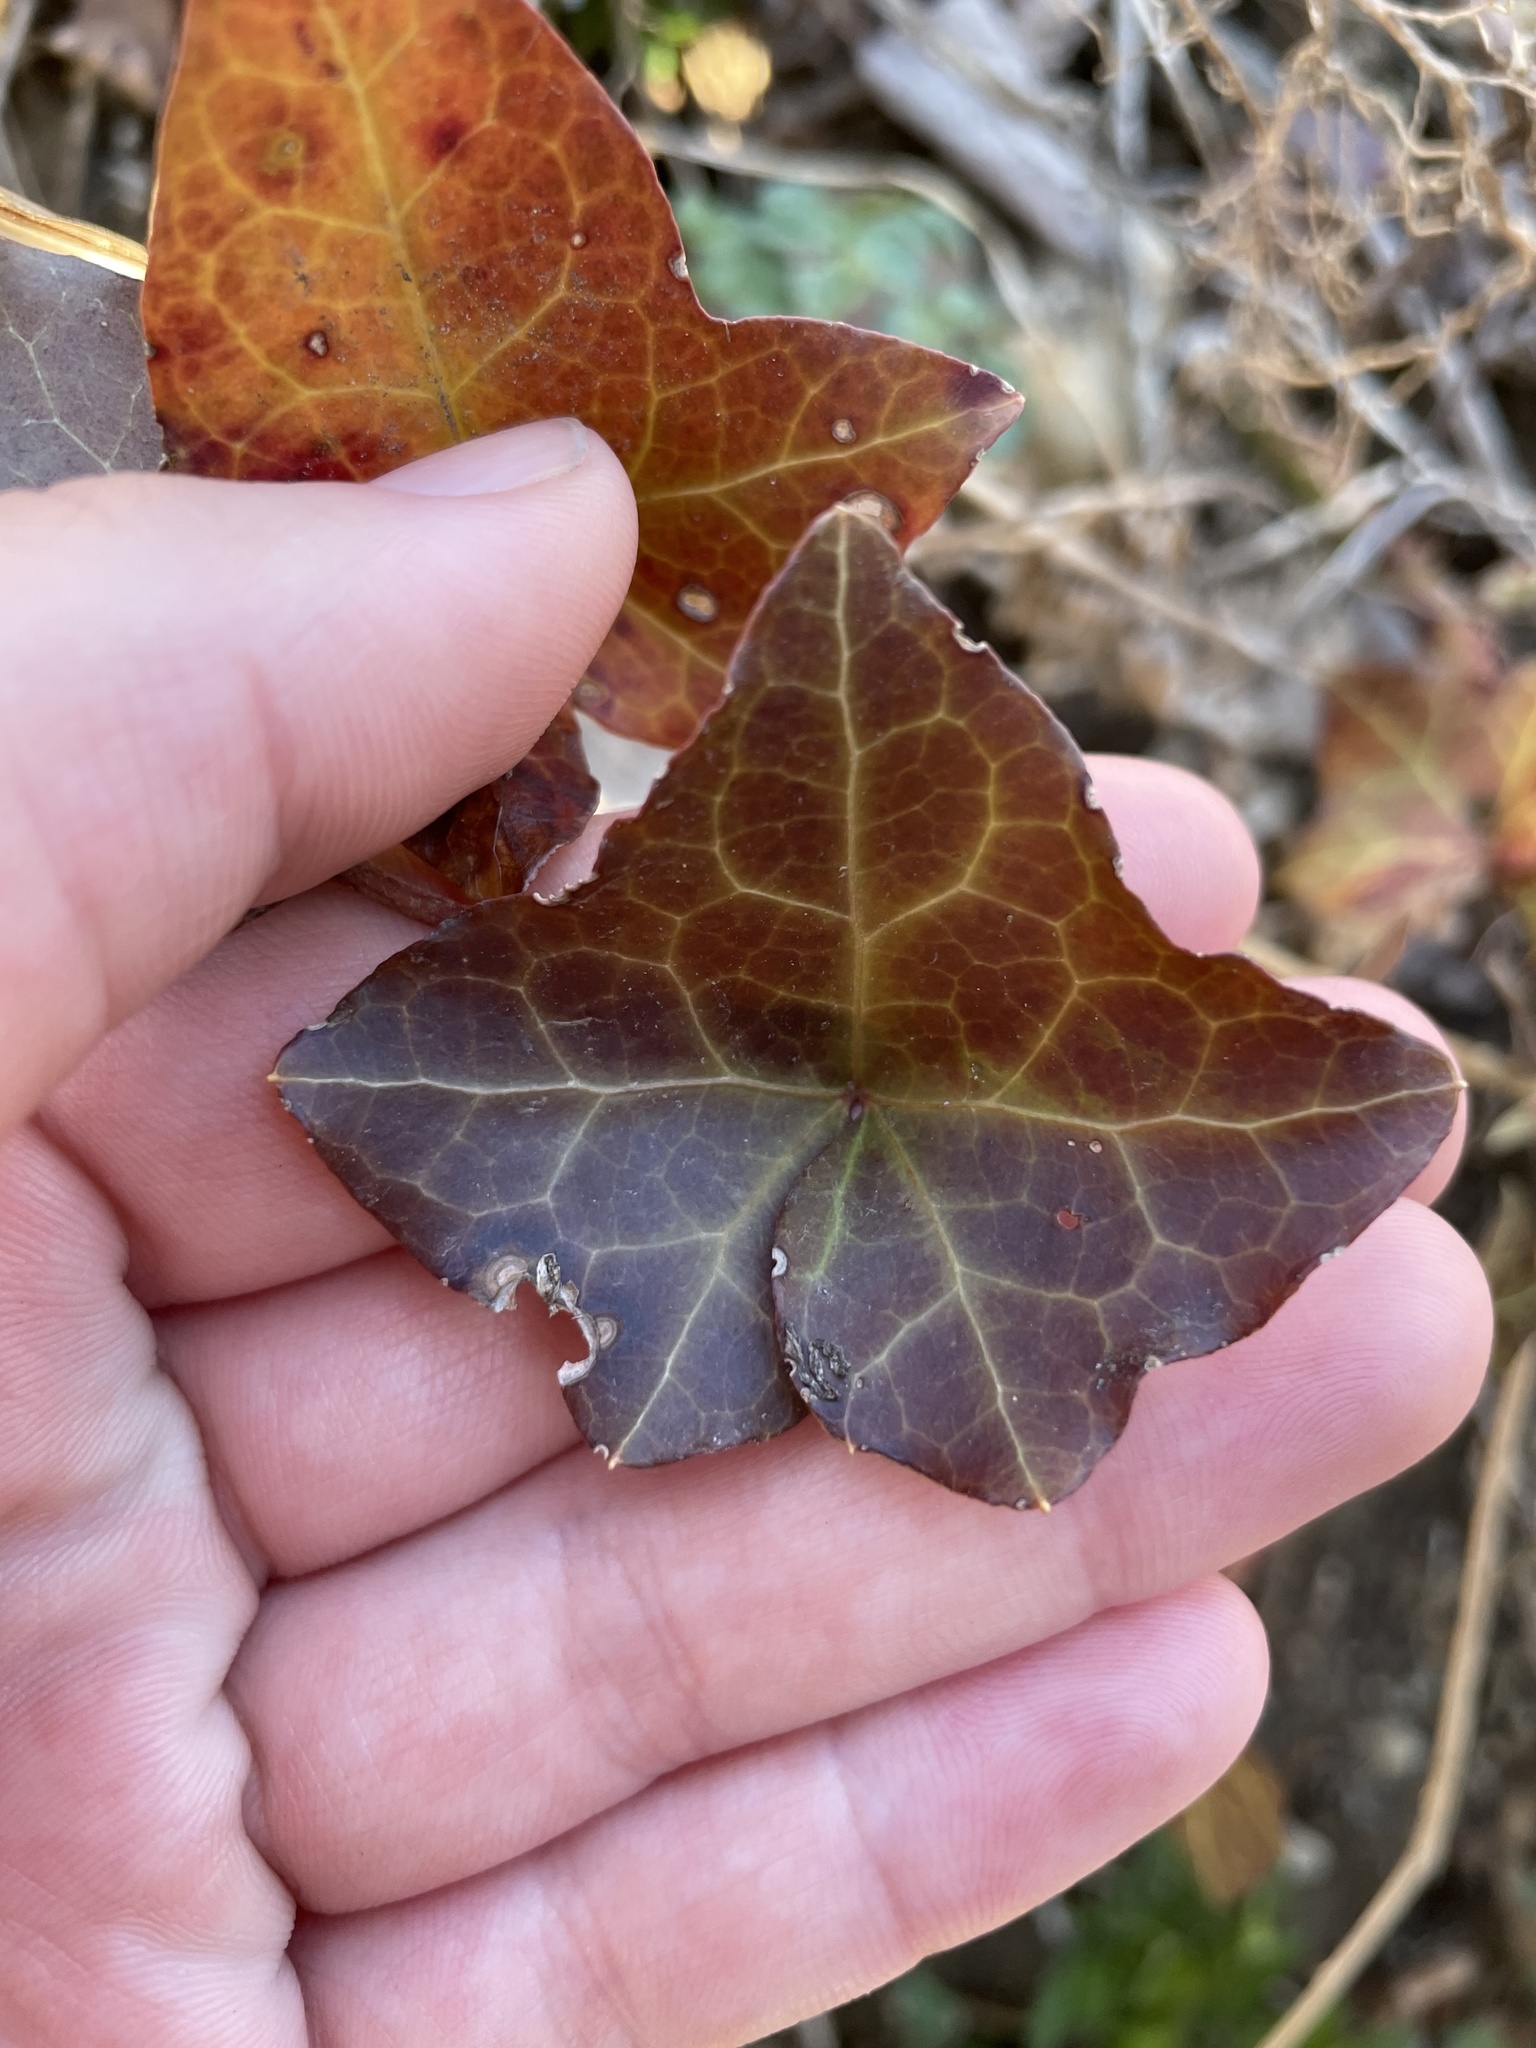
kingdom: Plantae
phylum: Tracheophyta
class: Magnoliopsida
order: Apiales
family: Araliaceae
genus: Hedera
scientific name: Hedera helix
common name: Ivy
